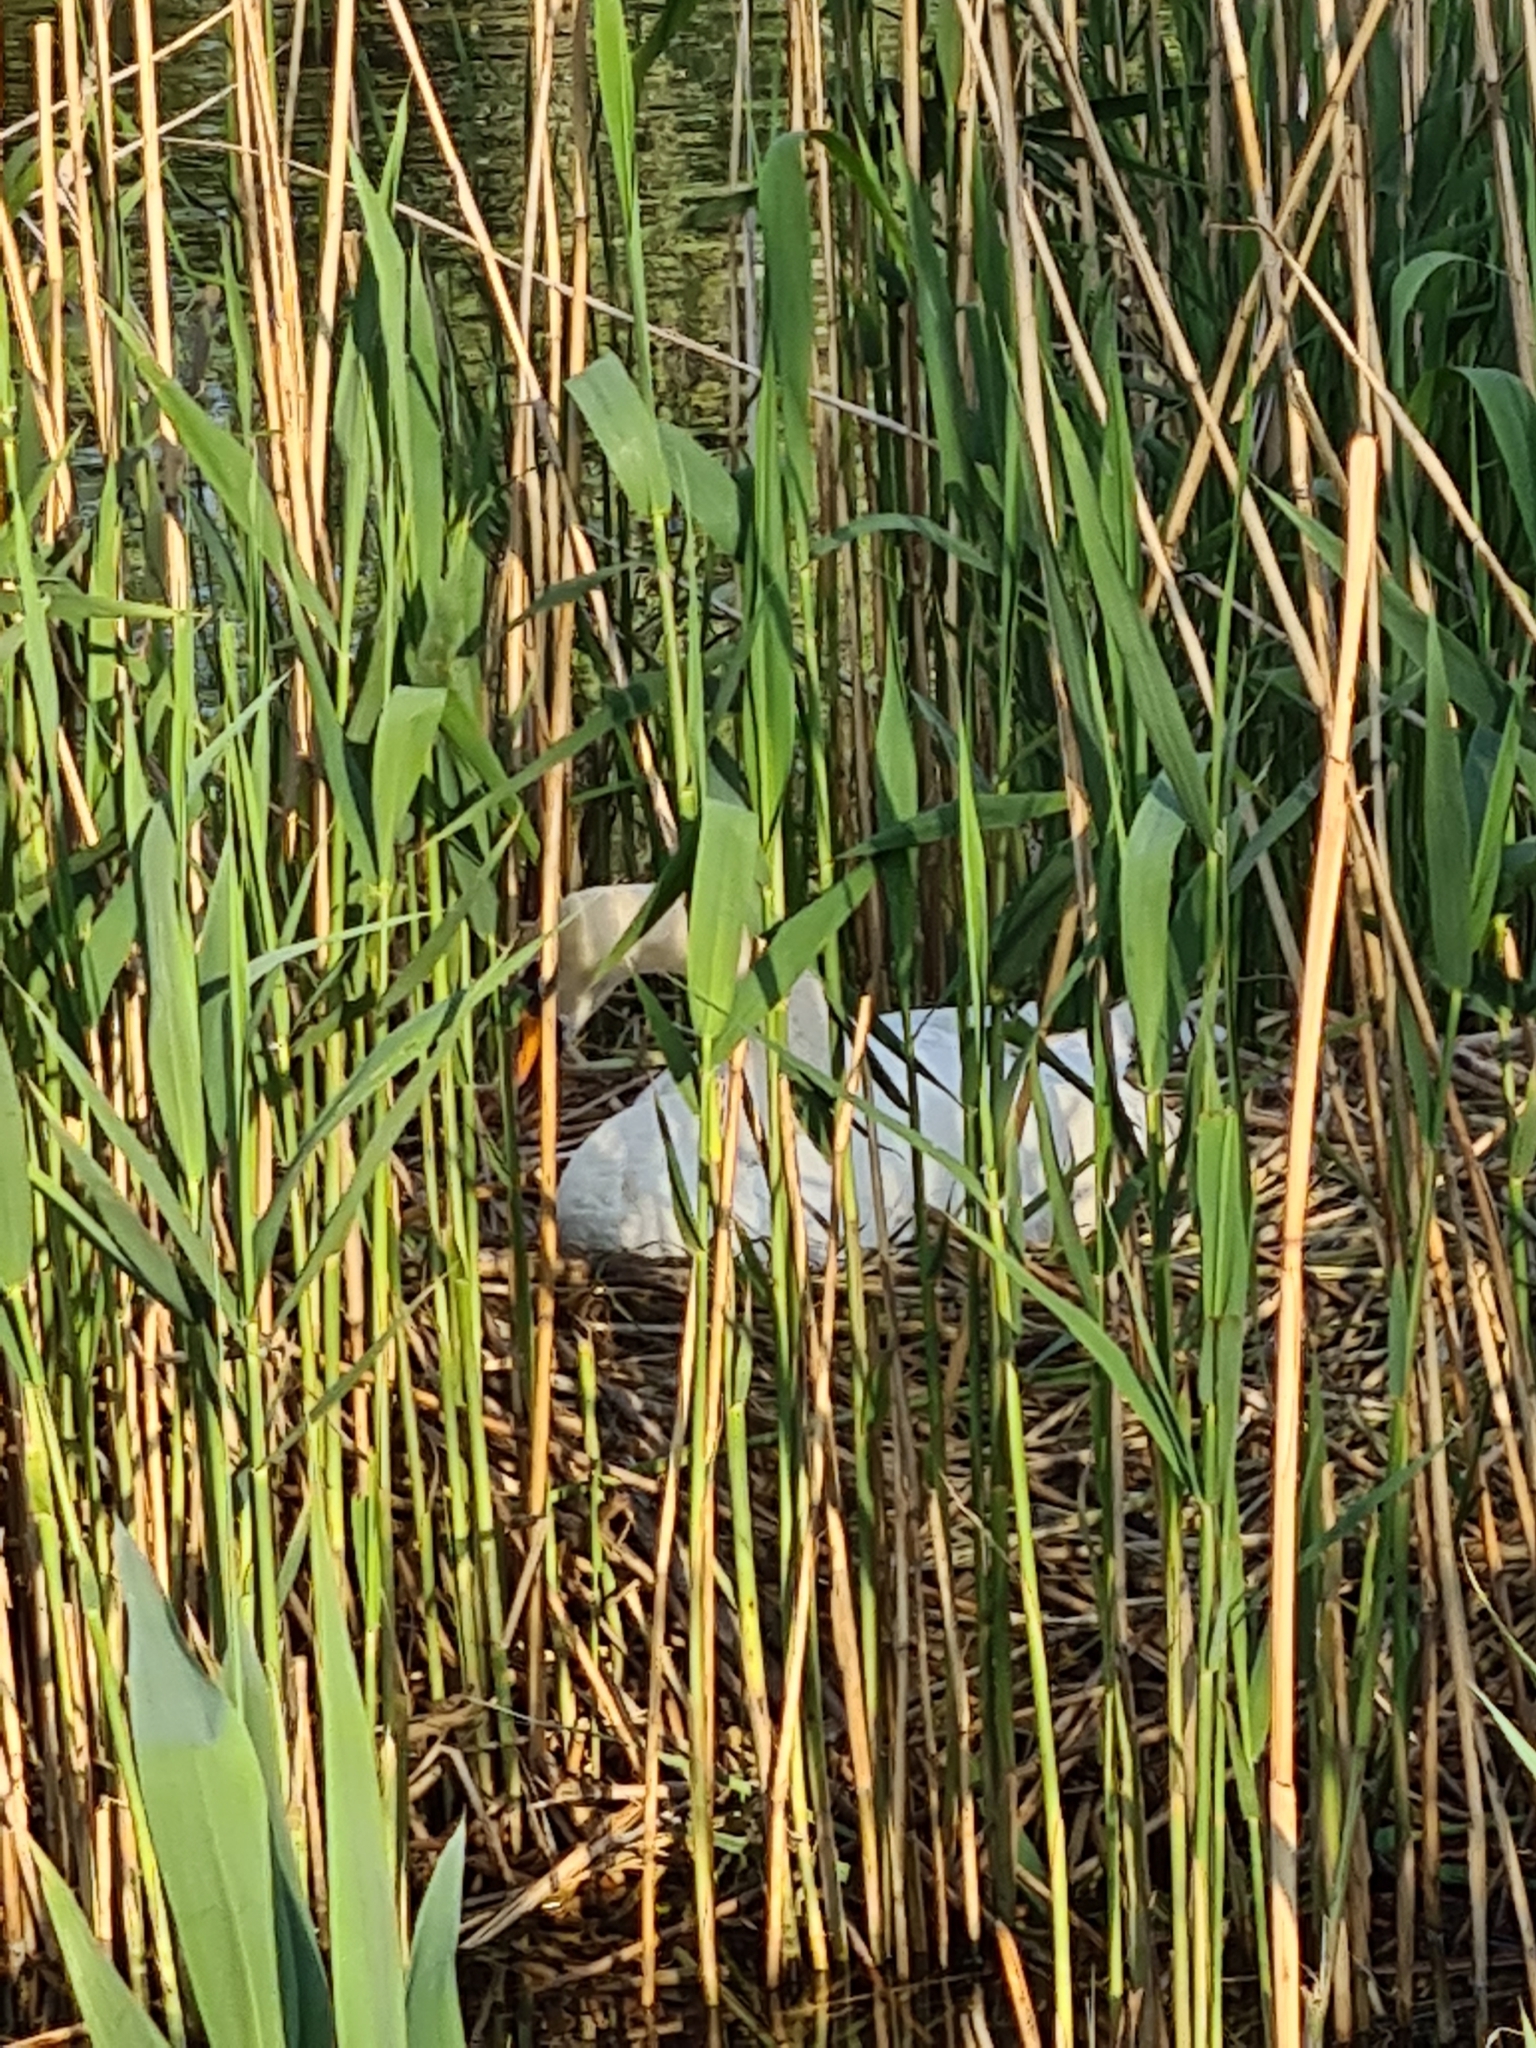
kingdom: Animalia
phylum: Chordata
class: Aves
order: Anseriformes
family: Anatidae
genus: Cygnus
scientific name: Cygnus olor
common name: Mute swan
